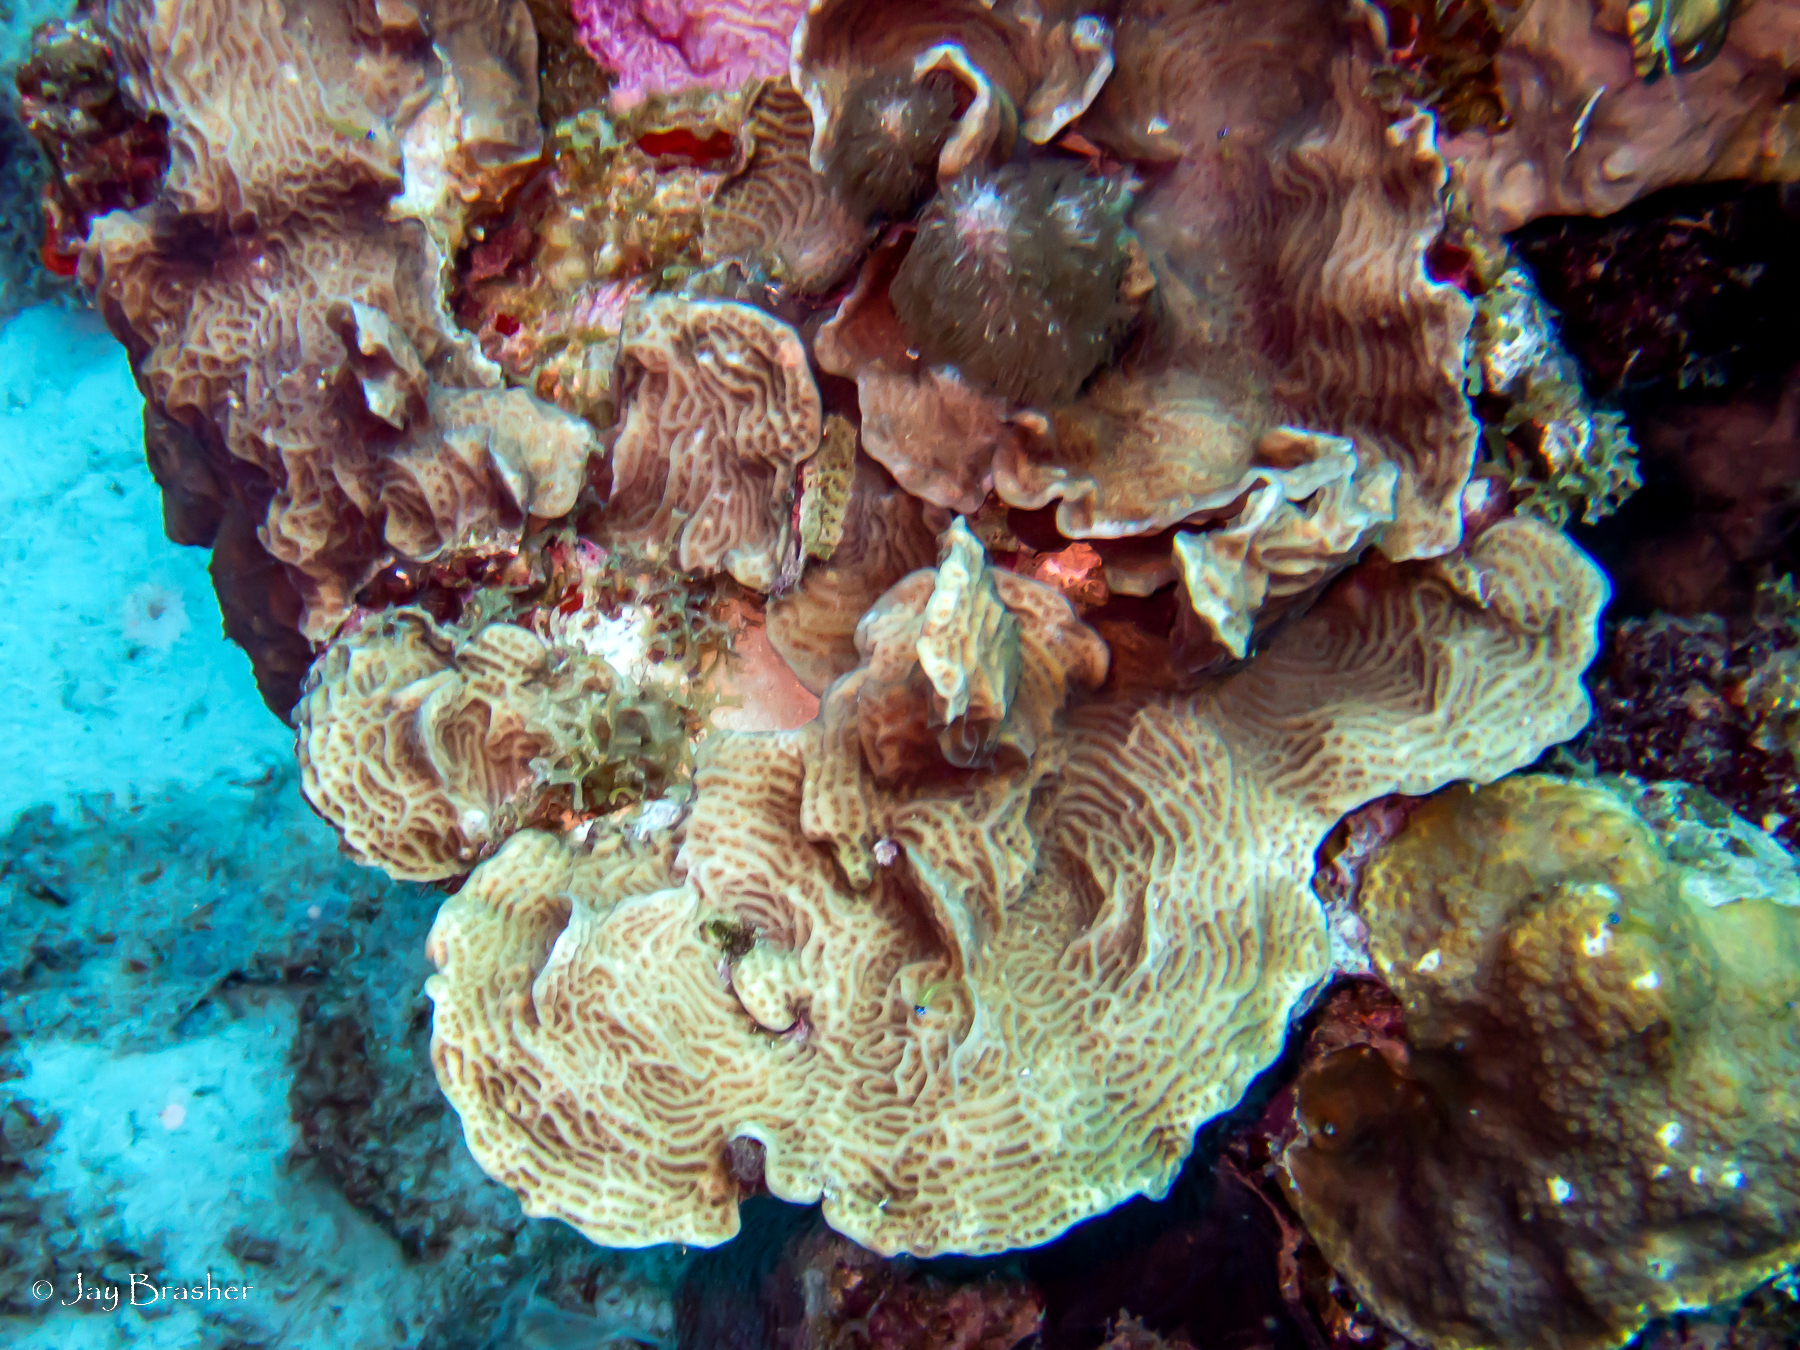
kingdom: Animalia
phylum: Cnidaria
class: Anthozoa
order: Scleractinia
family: Agariciidae
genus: Agaricia
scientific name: Agaricia agaricites
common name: Lettuce coral
